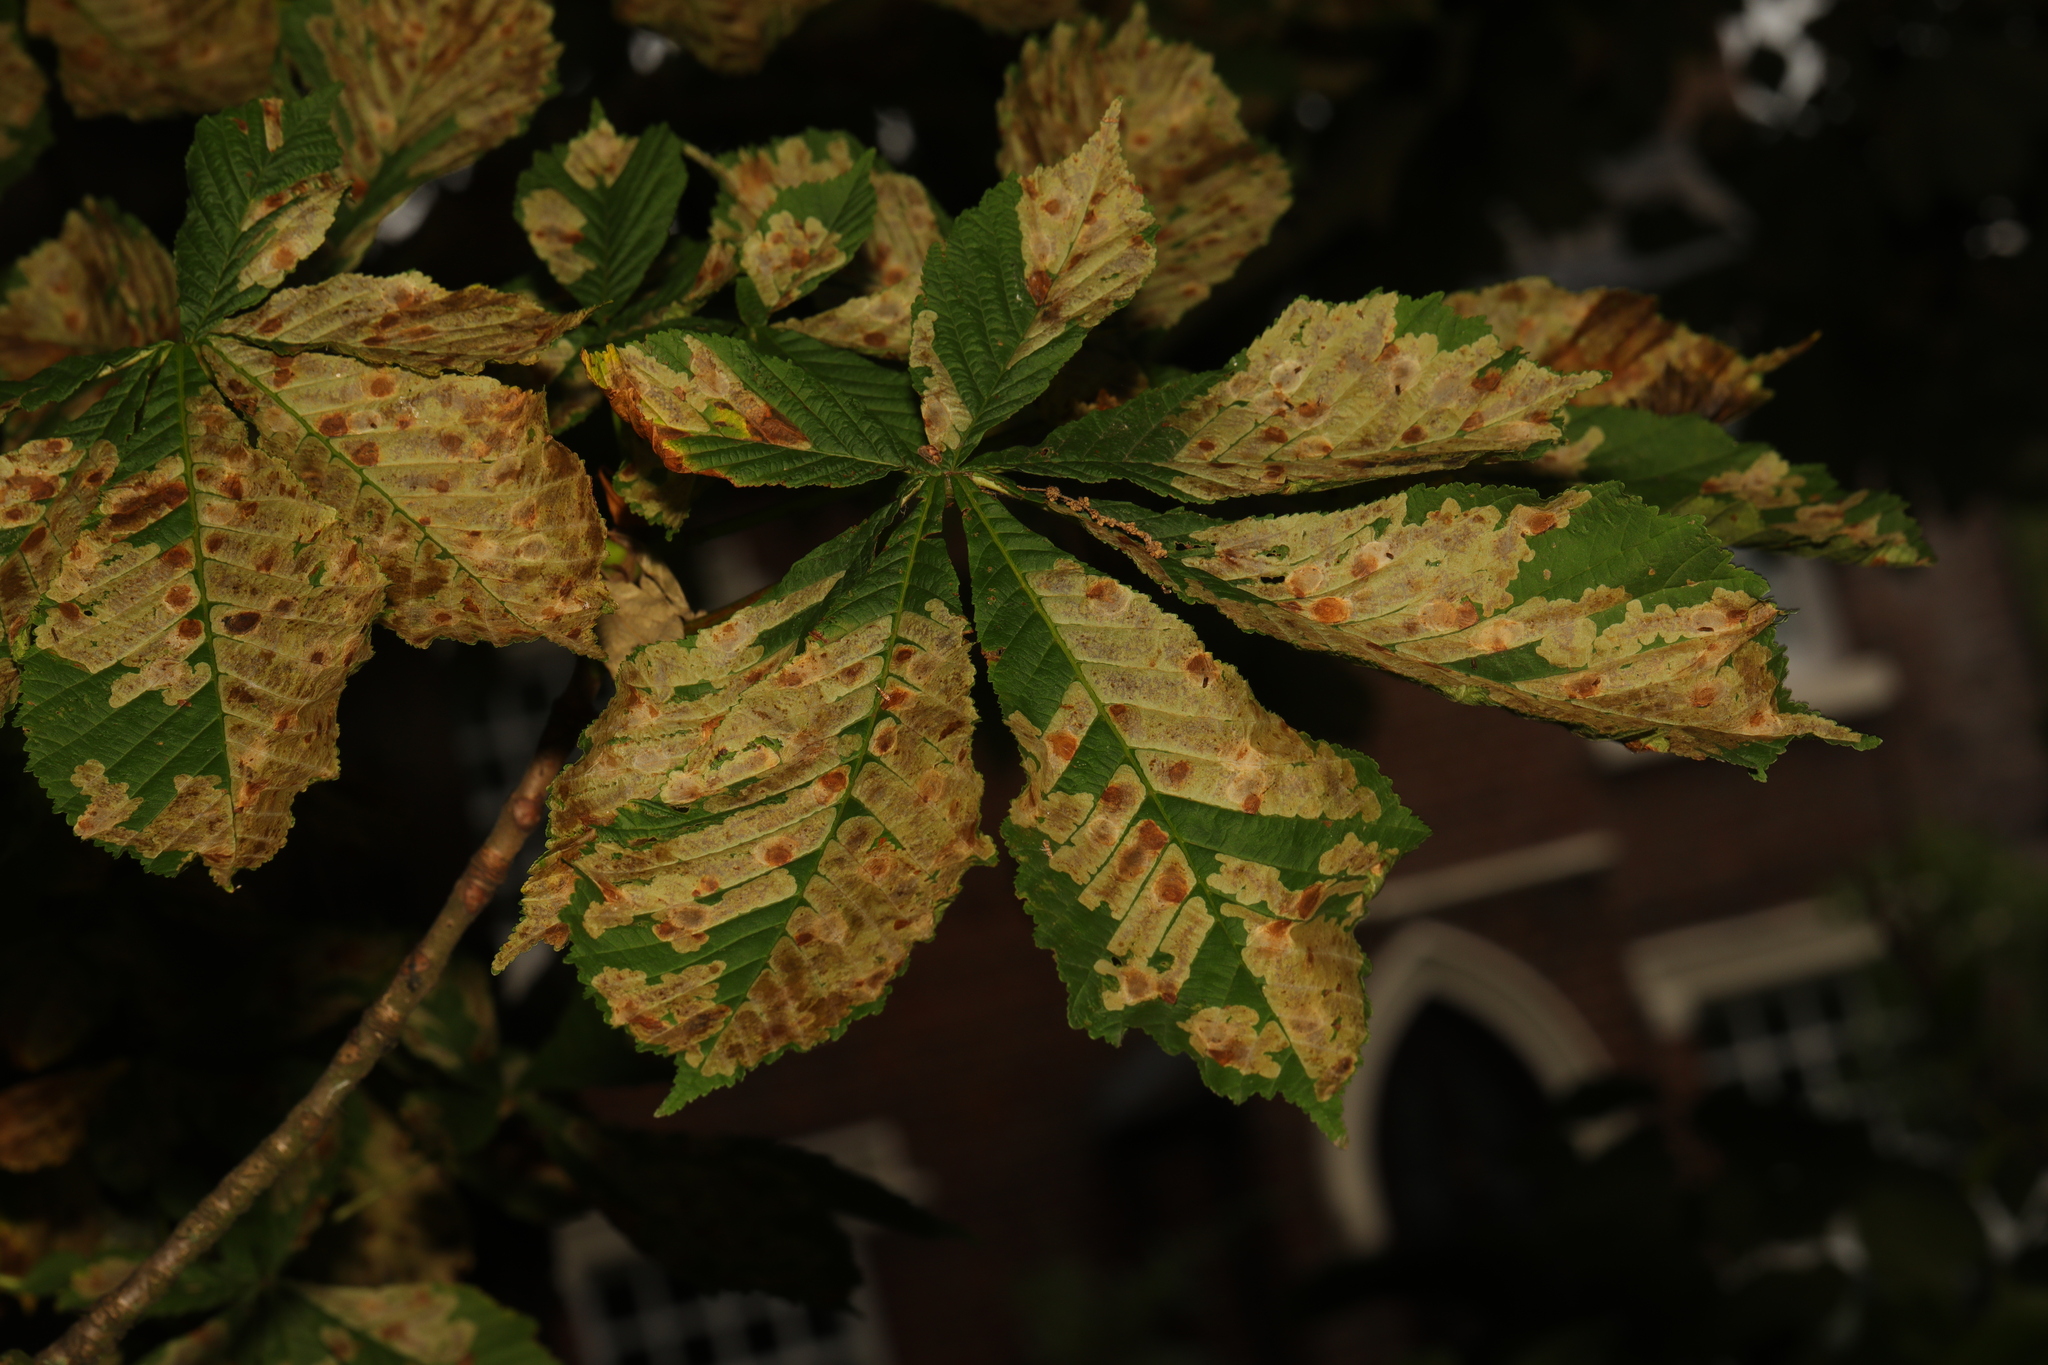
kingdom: Plantae
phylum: Tracheophyta
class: Magnoliopsida
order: Sapindales
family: Sapindaceae
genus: Aesculus
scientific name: Aesculus hippocastanum
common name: Horse-chestnut
